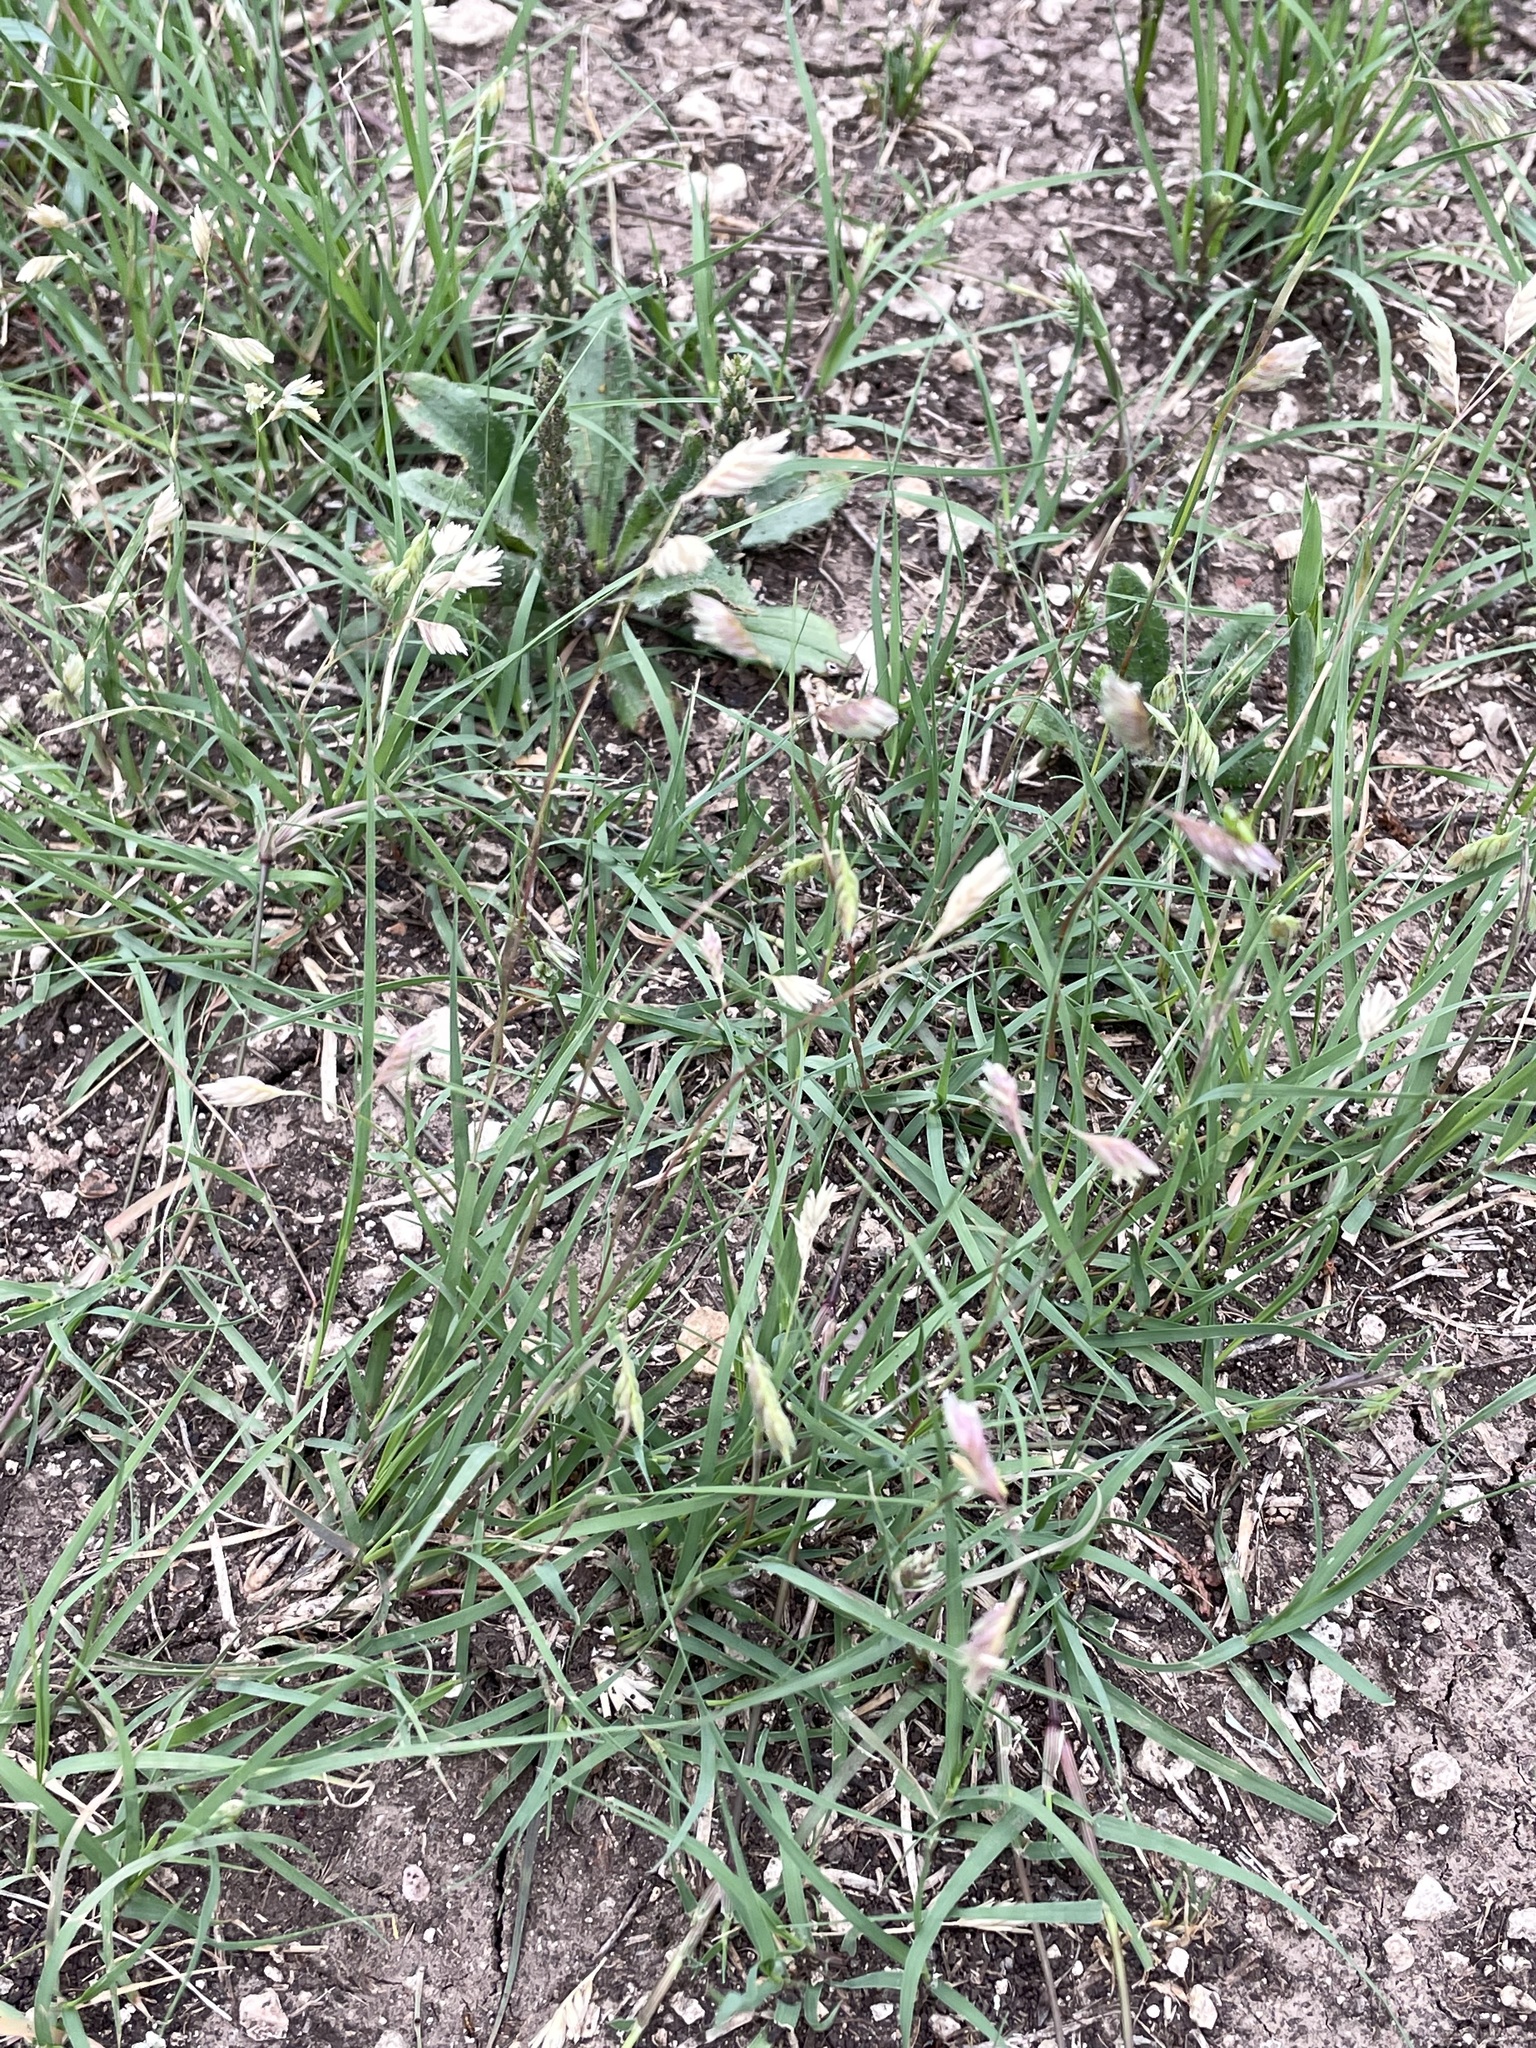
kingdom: Plantae
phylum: Tracheophyta
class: Liliopsida
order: Poales
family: Poaceae
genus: Bouteloua
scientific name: Bouteloua dactyloides
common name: Buffalo grass
